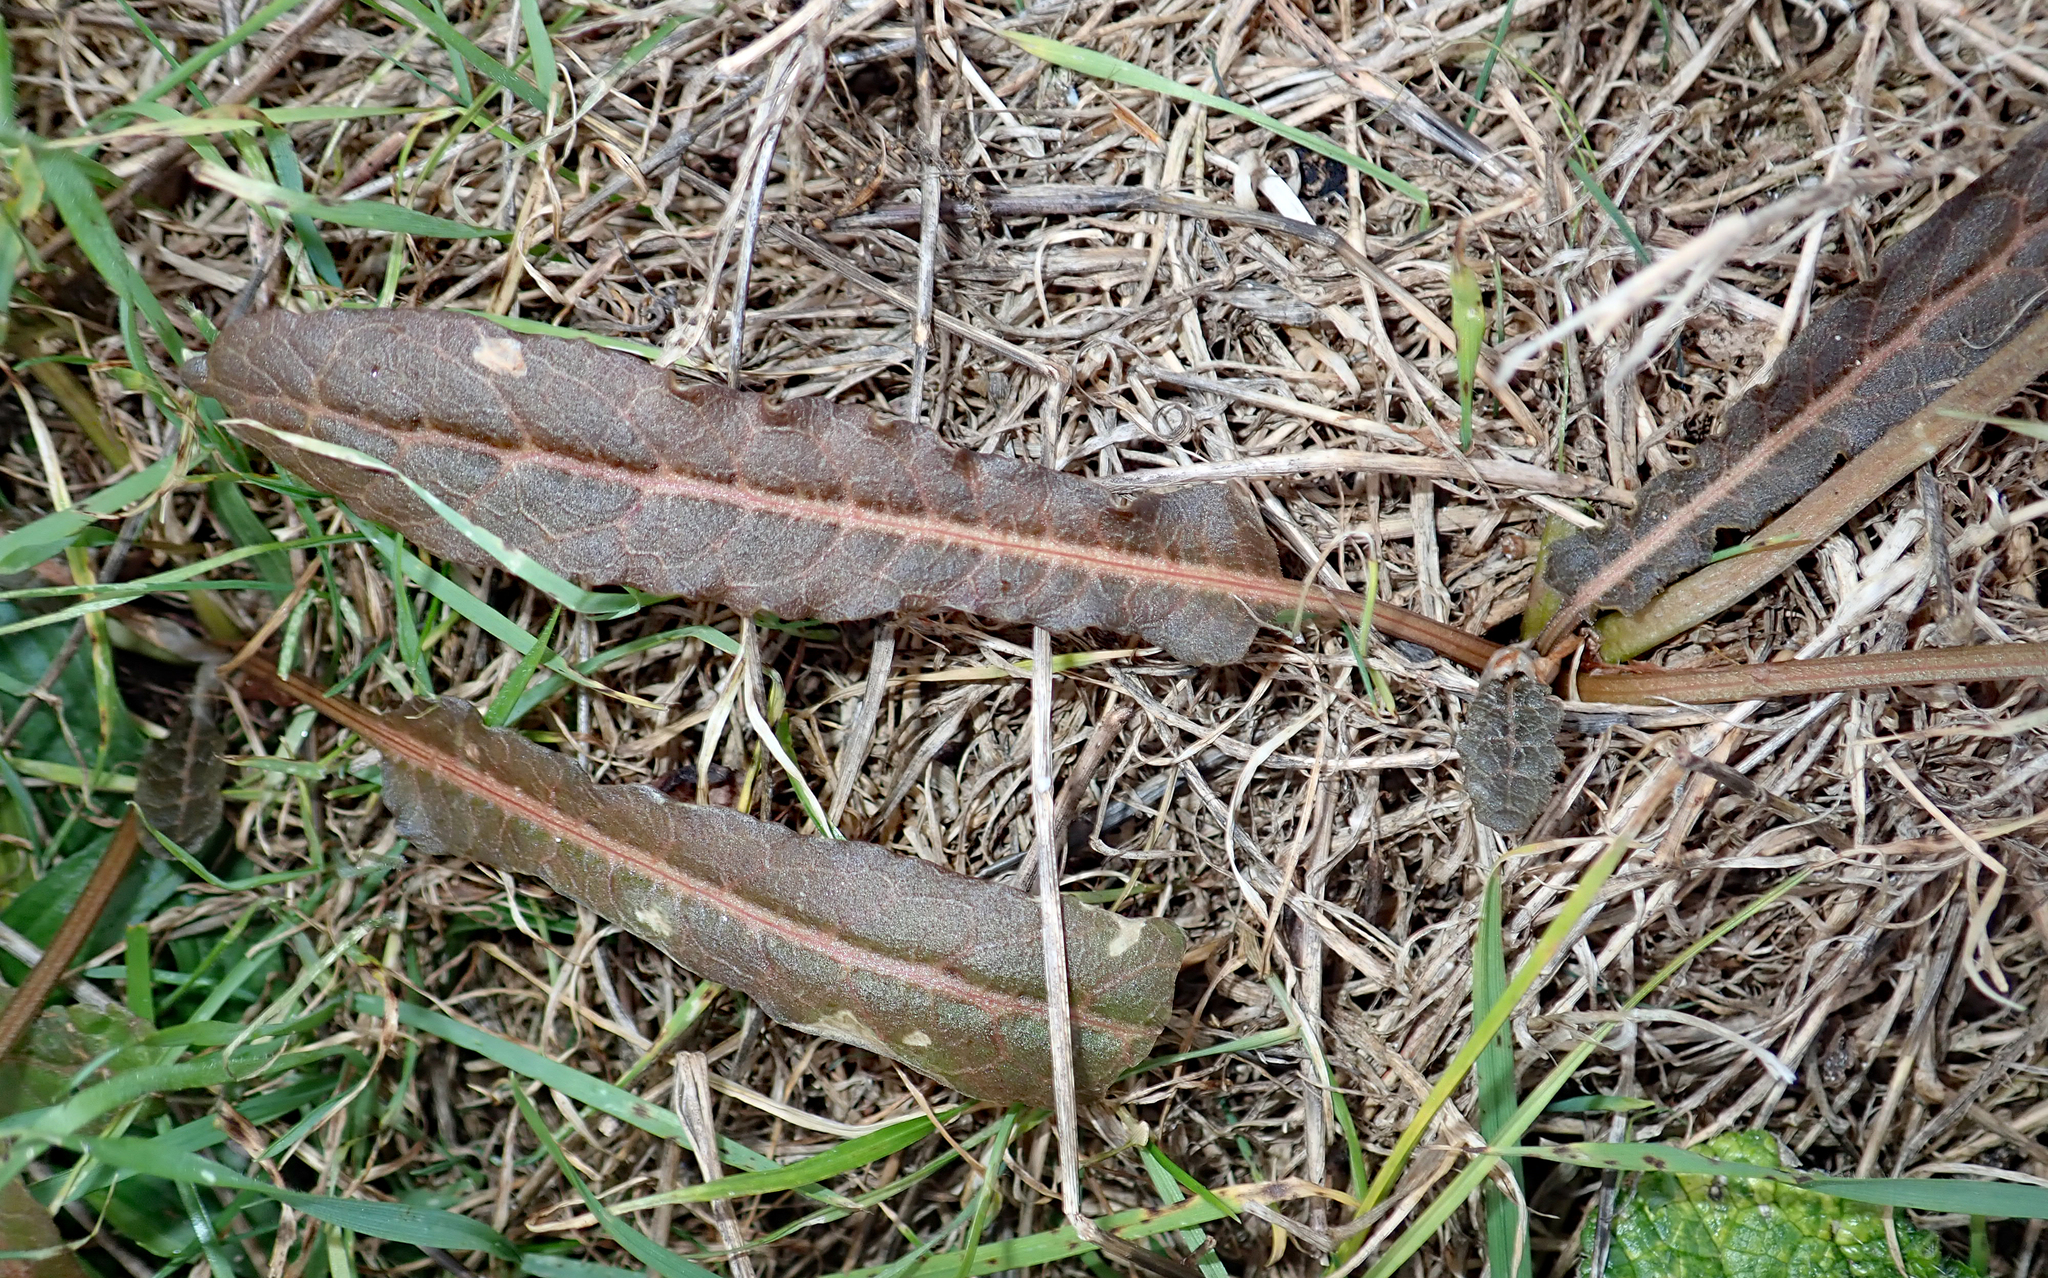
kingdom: Plantae
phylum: Tracheophyta
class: Magnoliopsida
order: Caryophyllales
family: Polygonaceae
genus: Rumex
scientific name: Rumex flexuosus
